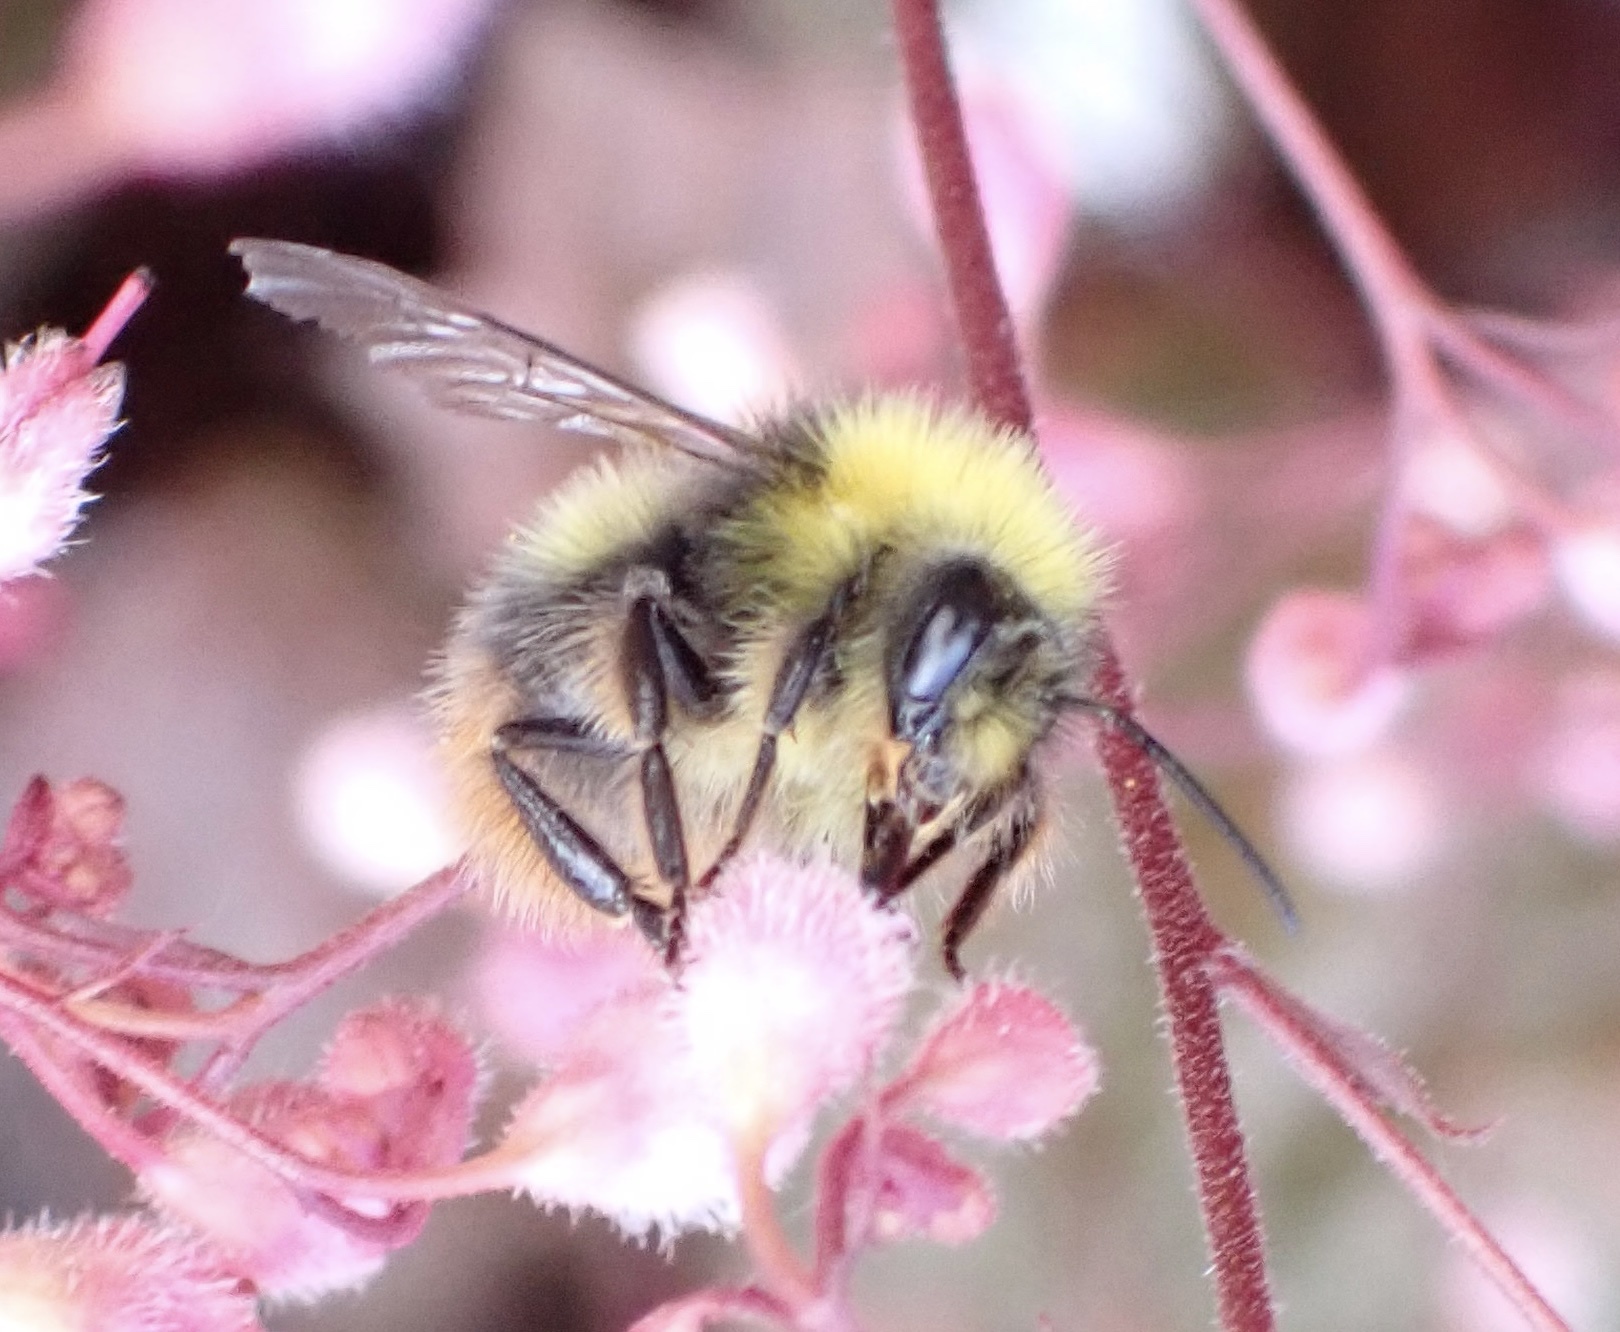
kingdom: Animalia
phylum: Arthropoda
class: Insecta
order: Hymenoptera
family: Apidae
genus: Bombus
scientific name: Bombus pratorum
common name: Early humble-bee
